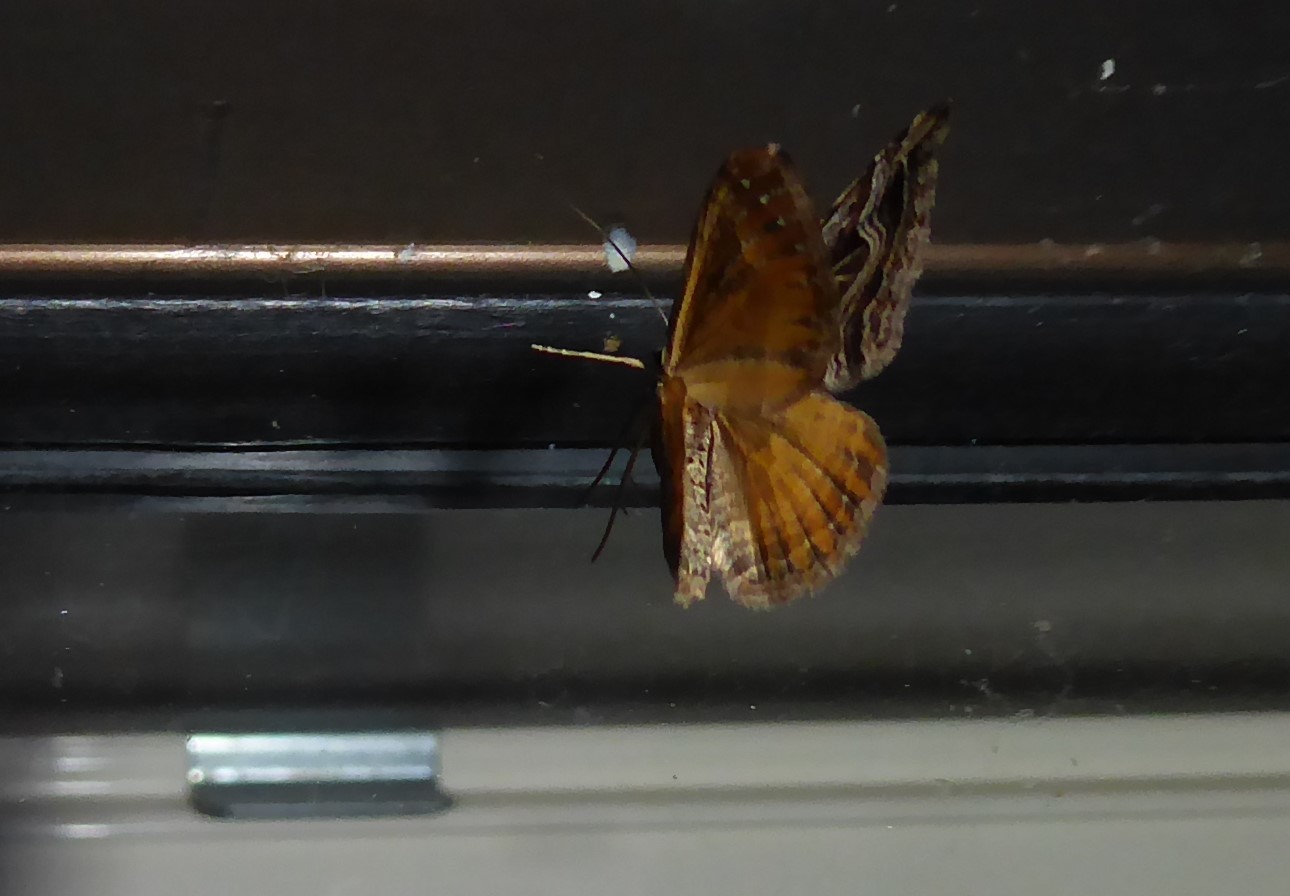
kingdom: Animalia
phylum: Arthropoda
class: Insecta
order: Lepidoptera
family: Geometridae
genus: Xanthorhoe
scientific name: Xanthorhoe semifissata
